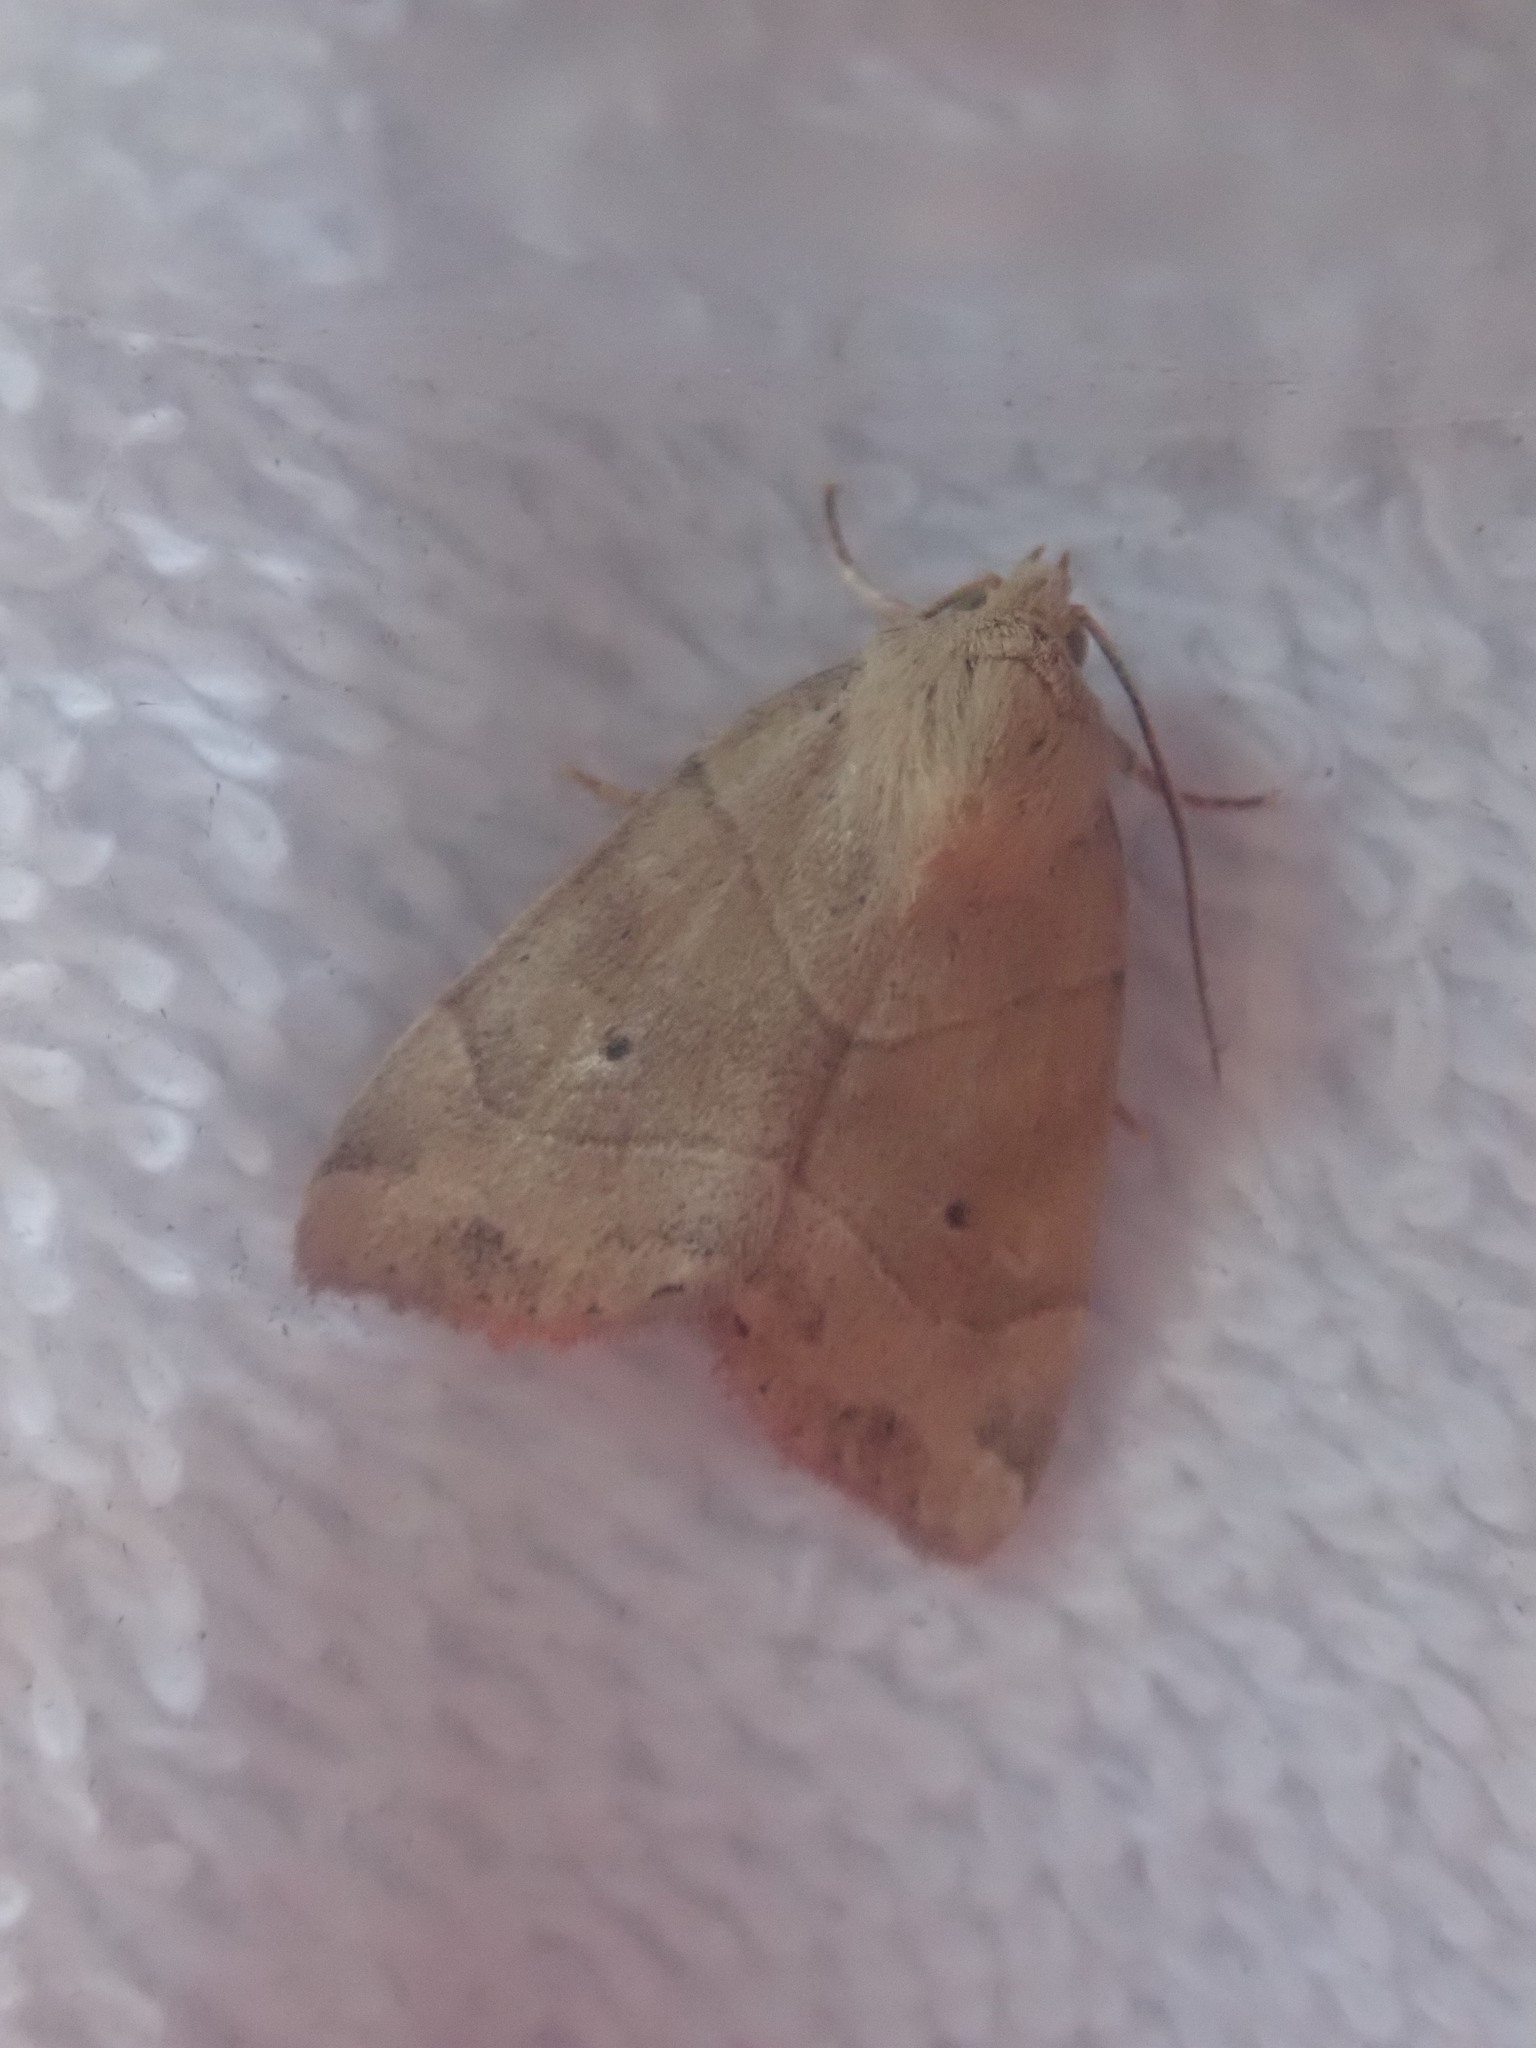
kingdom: Animalia
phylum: Arthropoda
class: Insecta
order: Lepidoptera
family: Noctuidae
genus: Cosmia
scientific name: Cosmia trapezina
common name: Dun-bar
